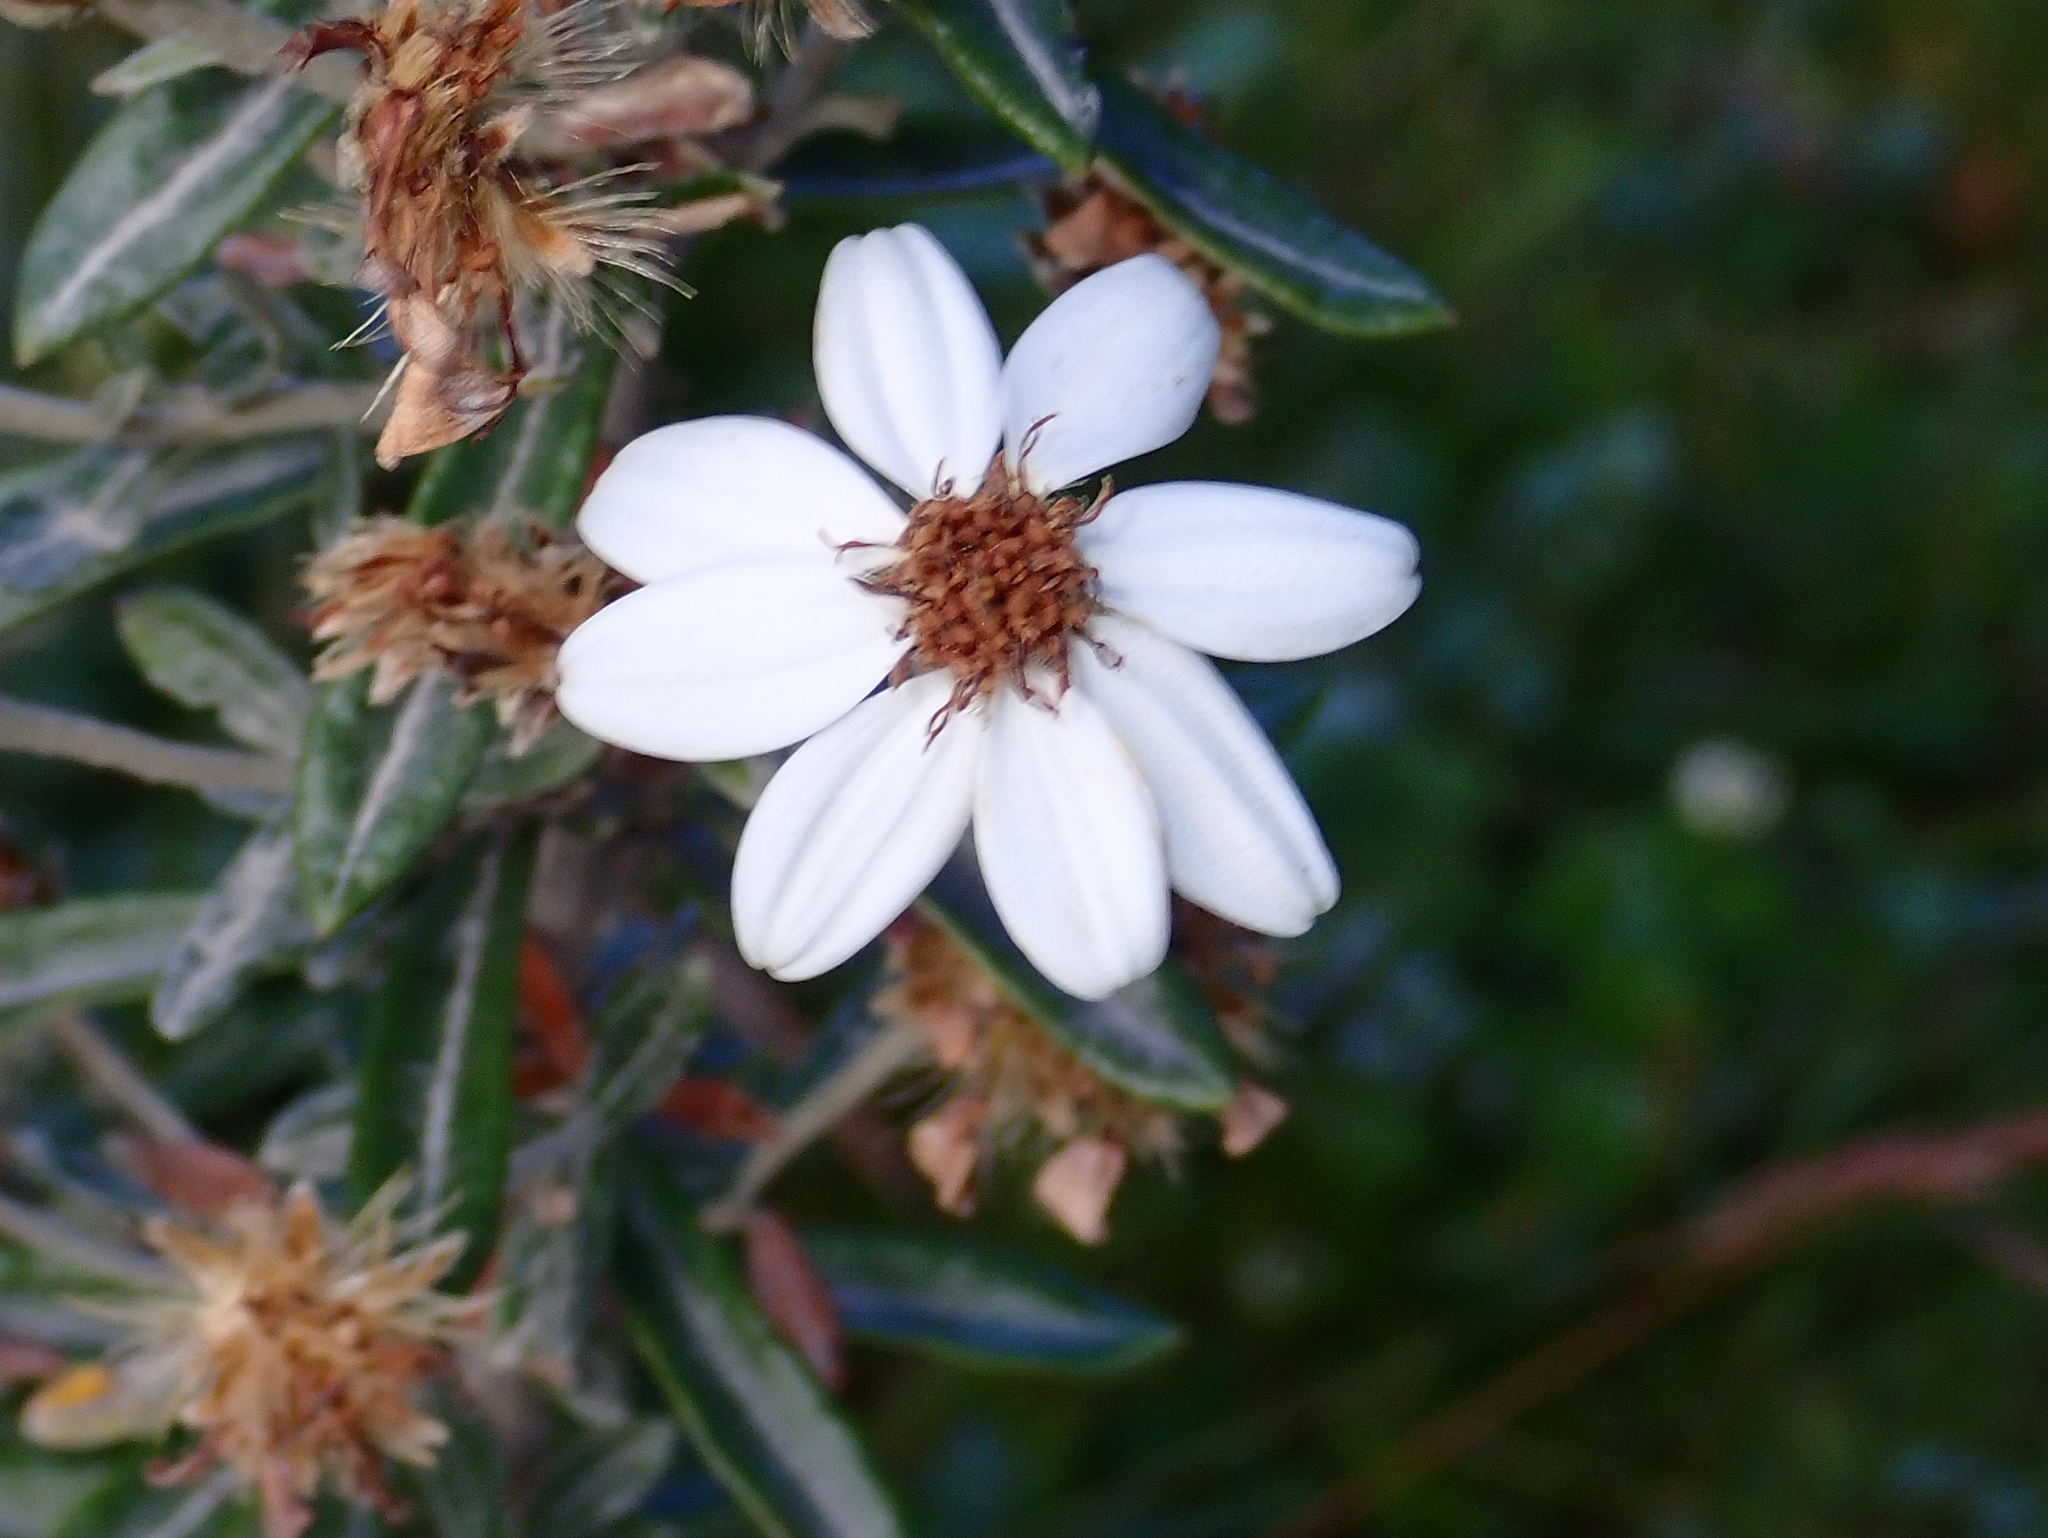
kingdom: Plantae
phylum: Tracheophyta
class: Magnoliopsida
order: Asterales
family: Asteraceae
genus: Chiliotrichum
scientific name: Chiliotrichum diffusum
